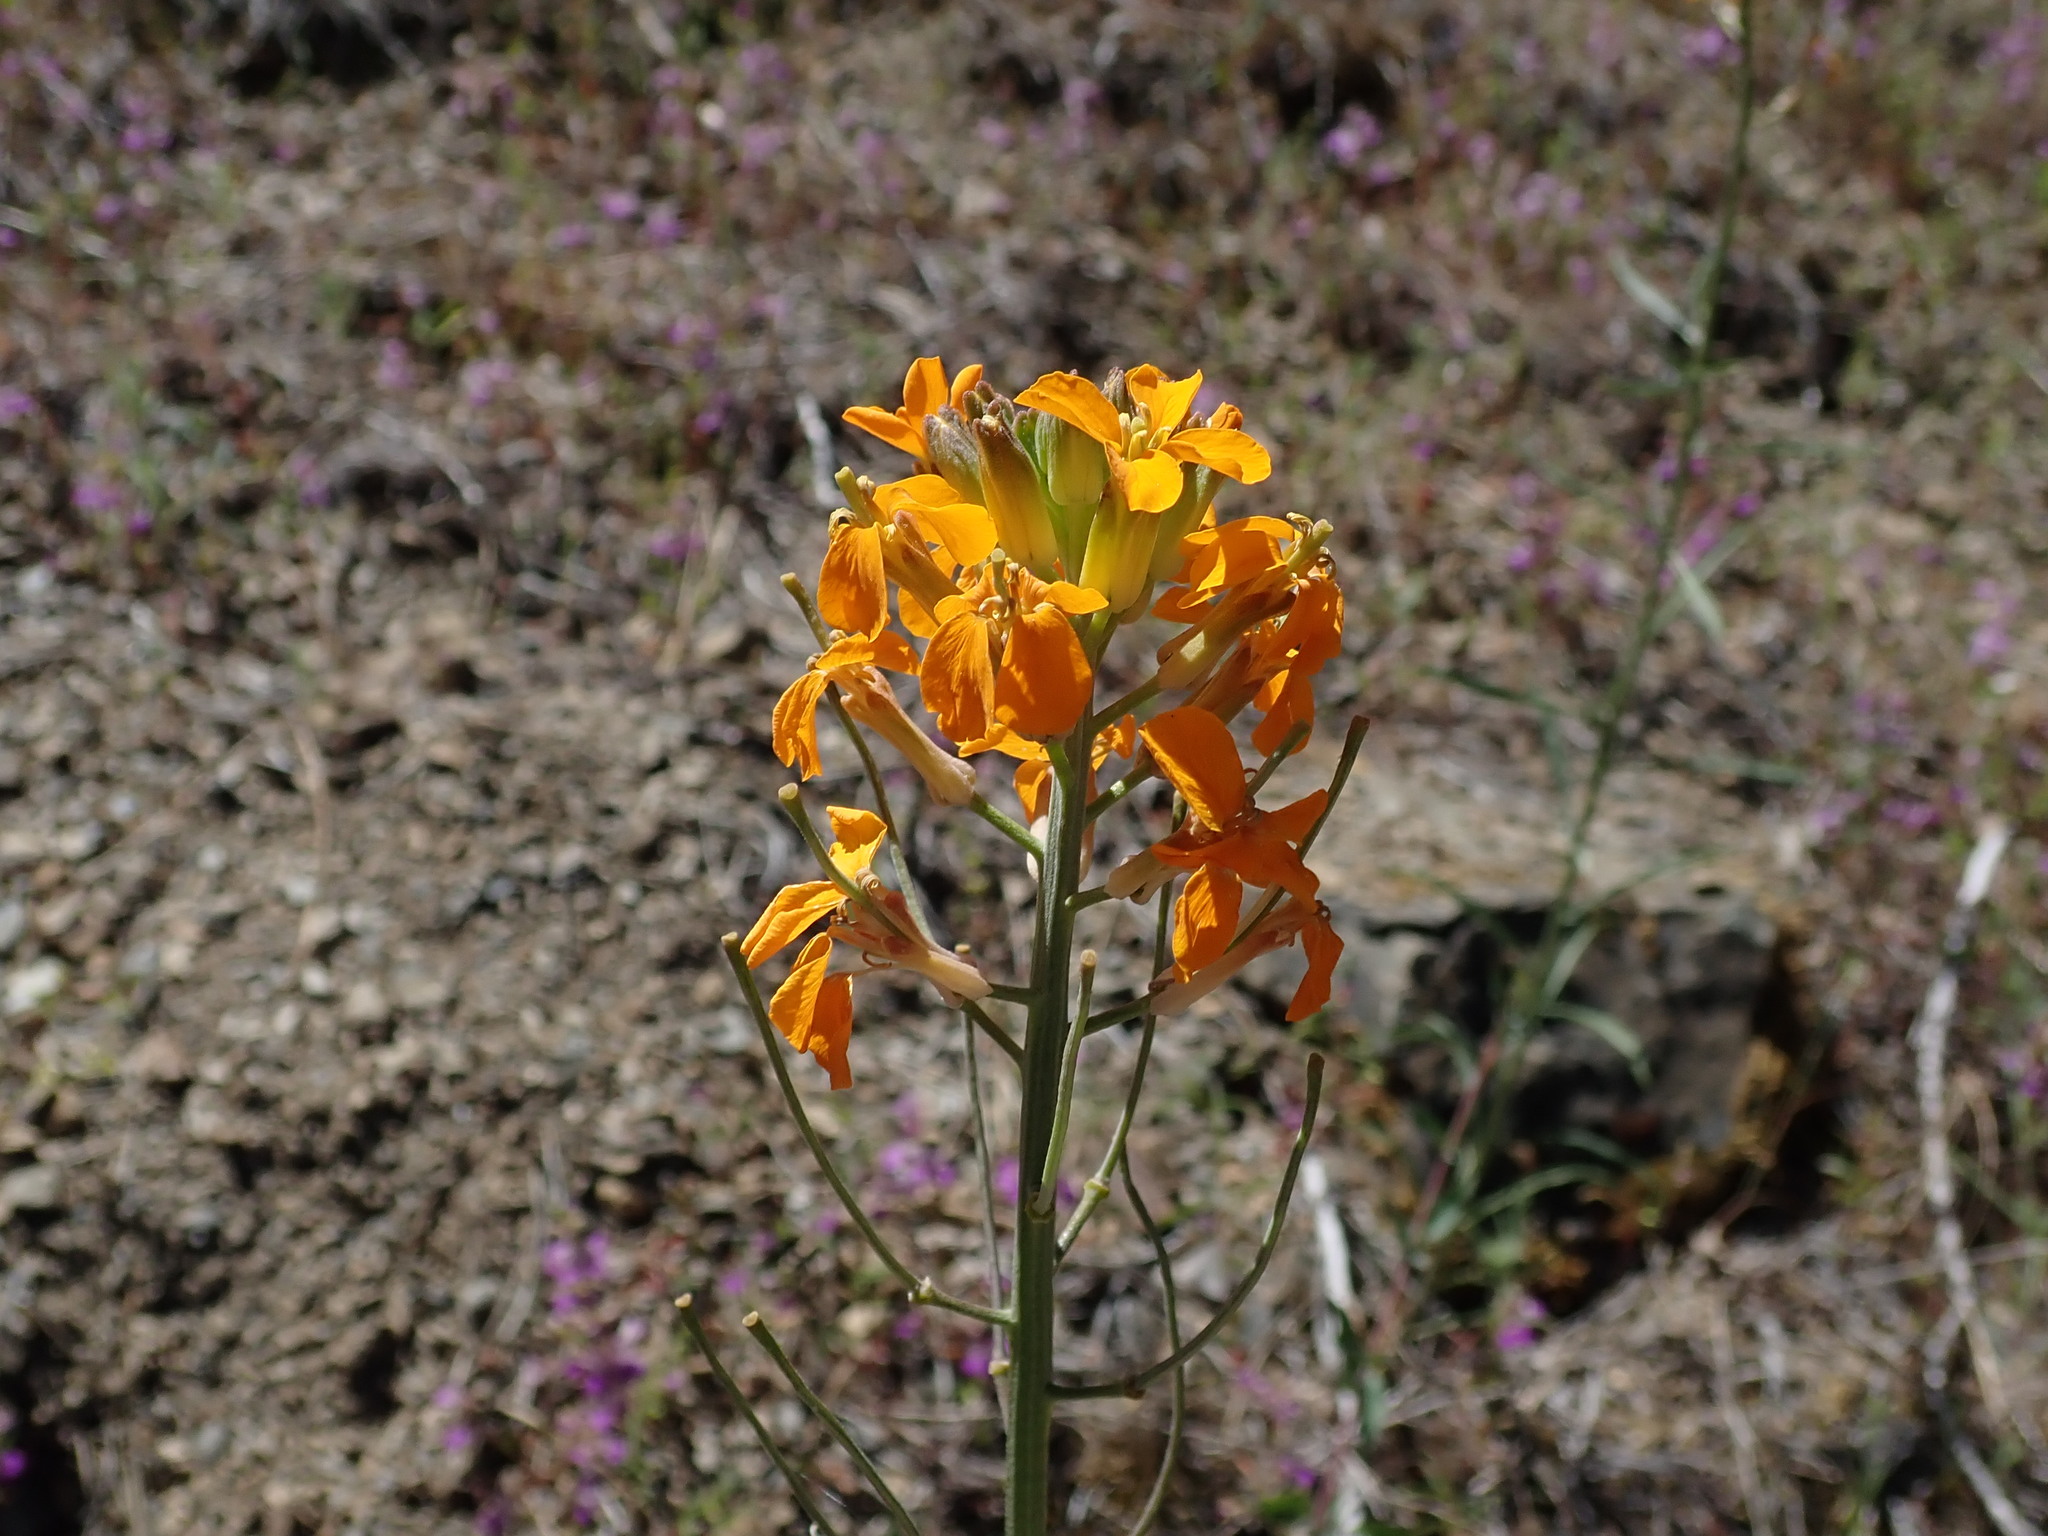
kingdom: Plantae
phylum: Tracheophyta
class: Magnoliopsida
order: Brassicales
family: Brassicaceae
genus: Erysimum
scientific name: Erysimum capitatum
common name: Western wallflower
